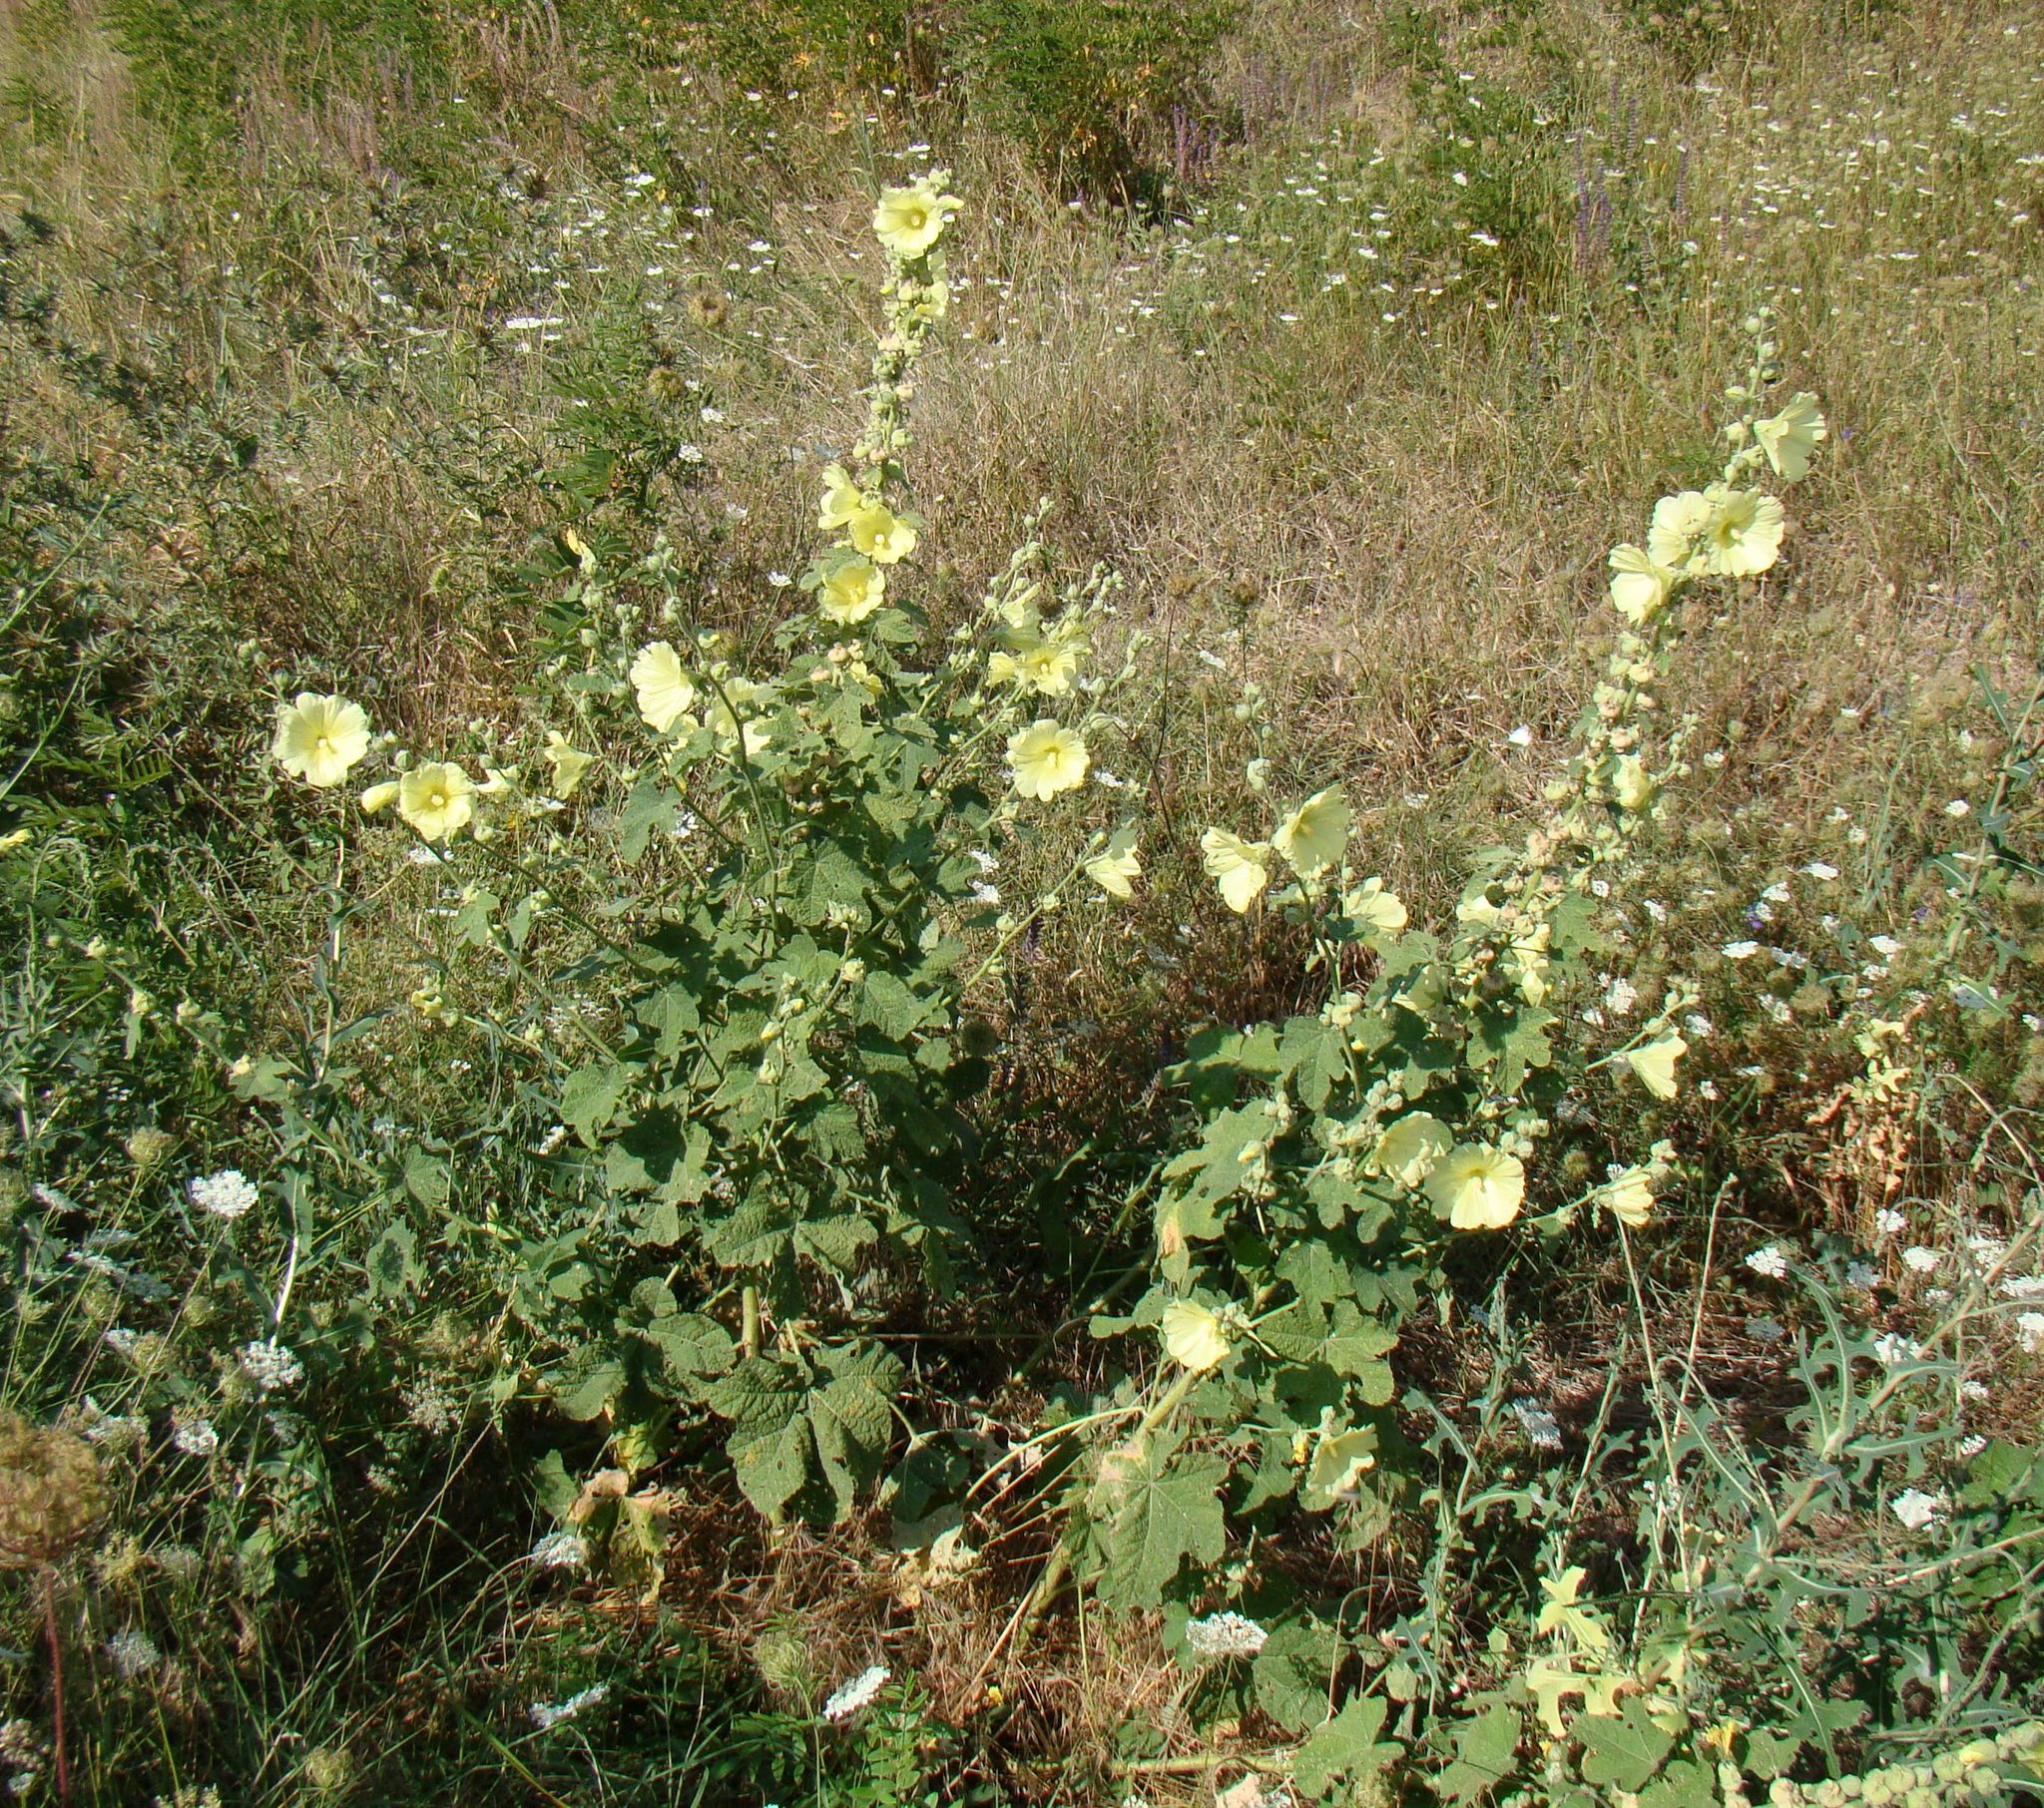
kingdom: Plantae
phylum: Tracheophyta
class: Magnoliopsida
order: Malvales
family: Malvaceae
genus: Alcea
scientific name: Alcea rugosa
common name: Russian hollyhock
